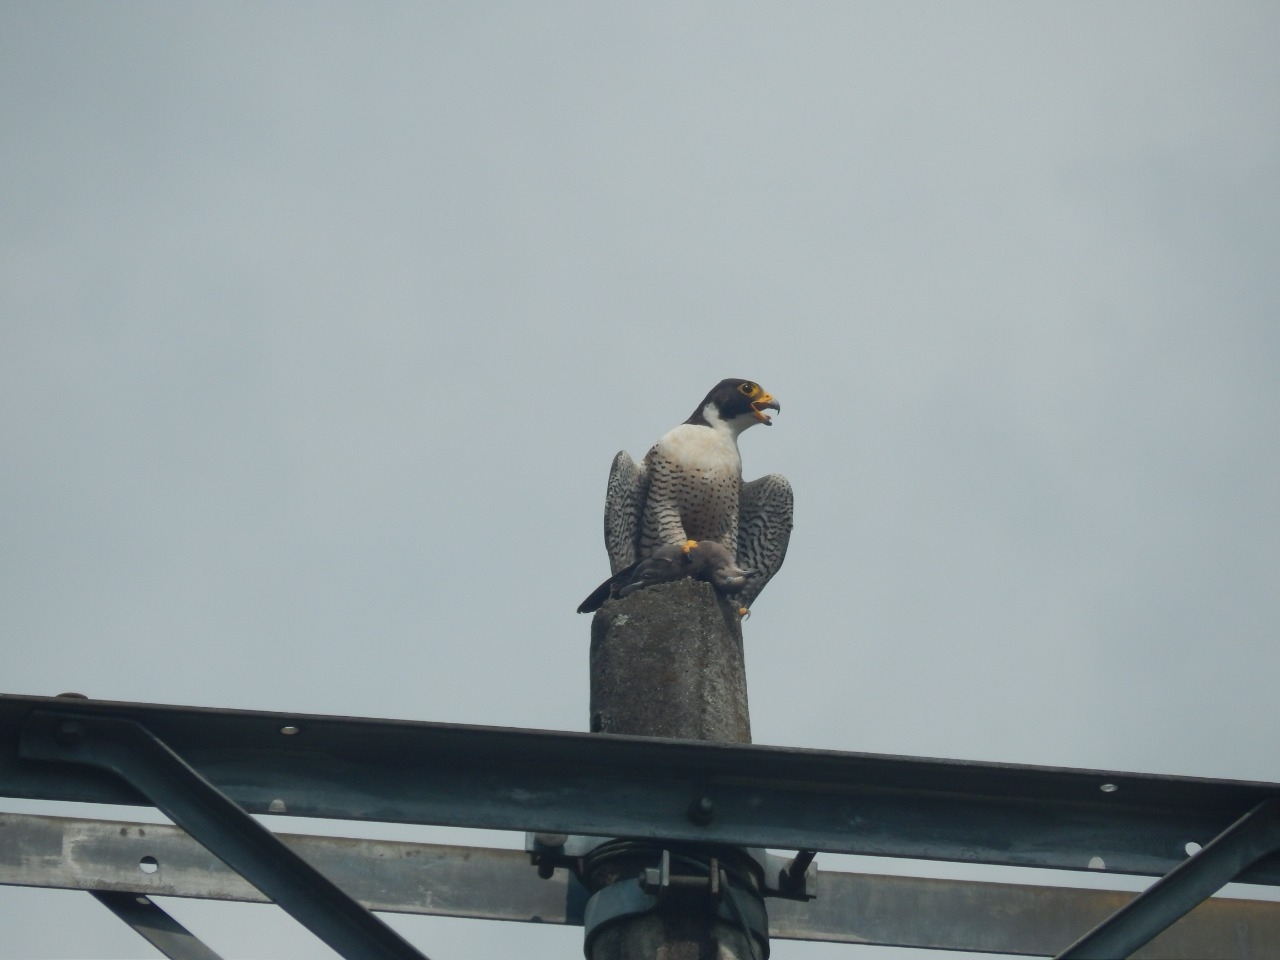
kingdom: Animalia
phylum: Chordata
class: Aves
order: Falconiformes
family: Falconidae
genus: Falco
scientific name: Falco peregrinus
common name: Peregrine falcon
